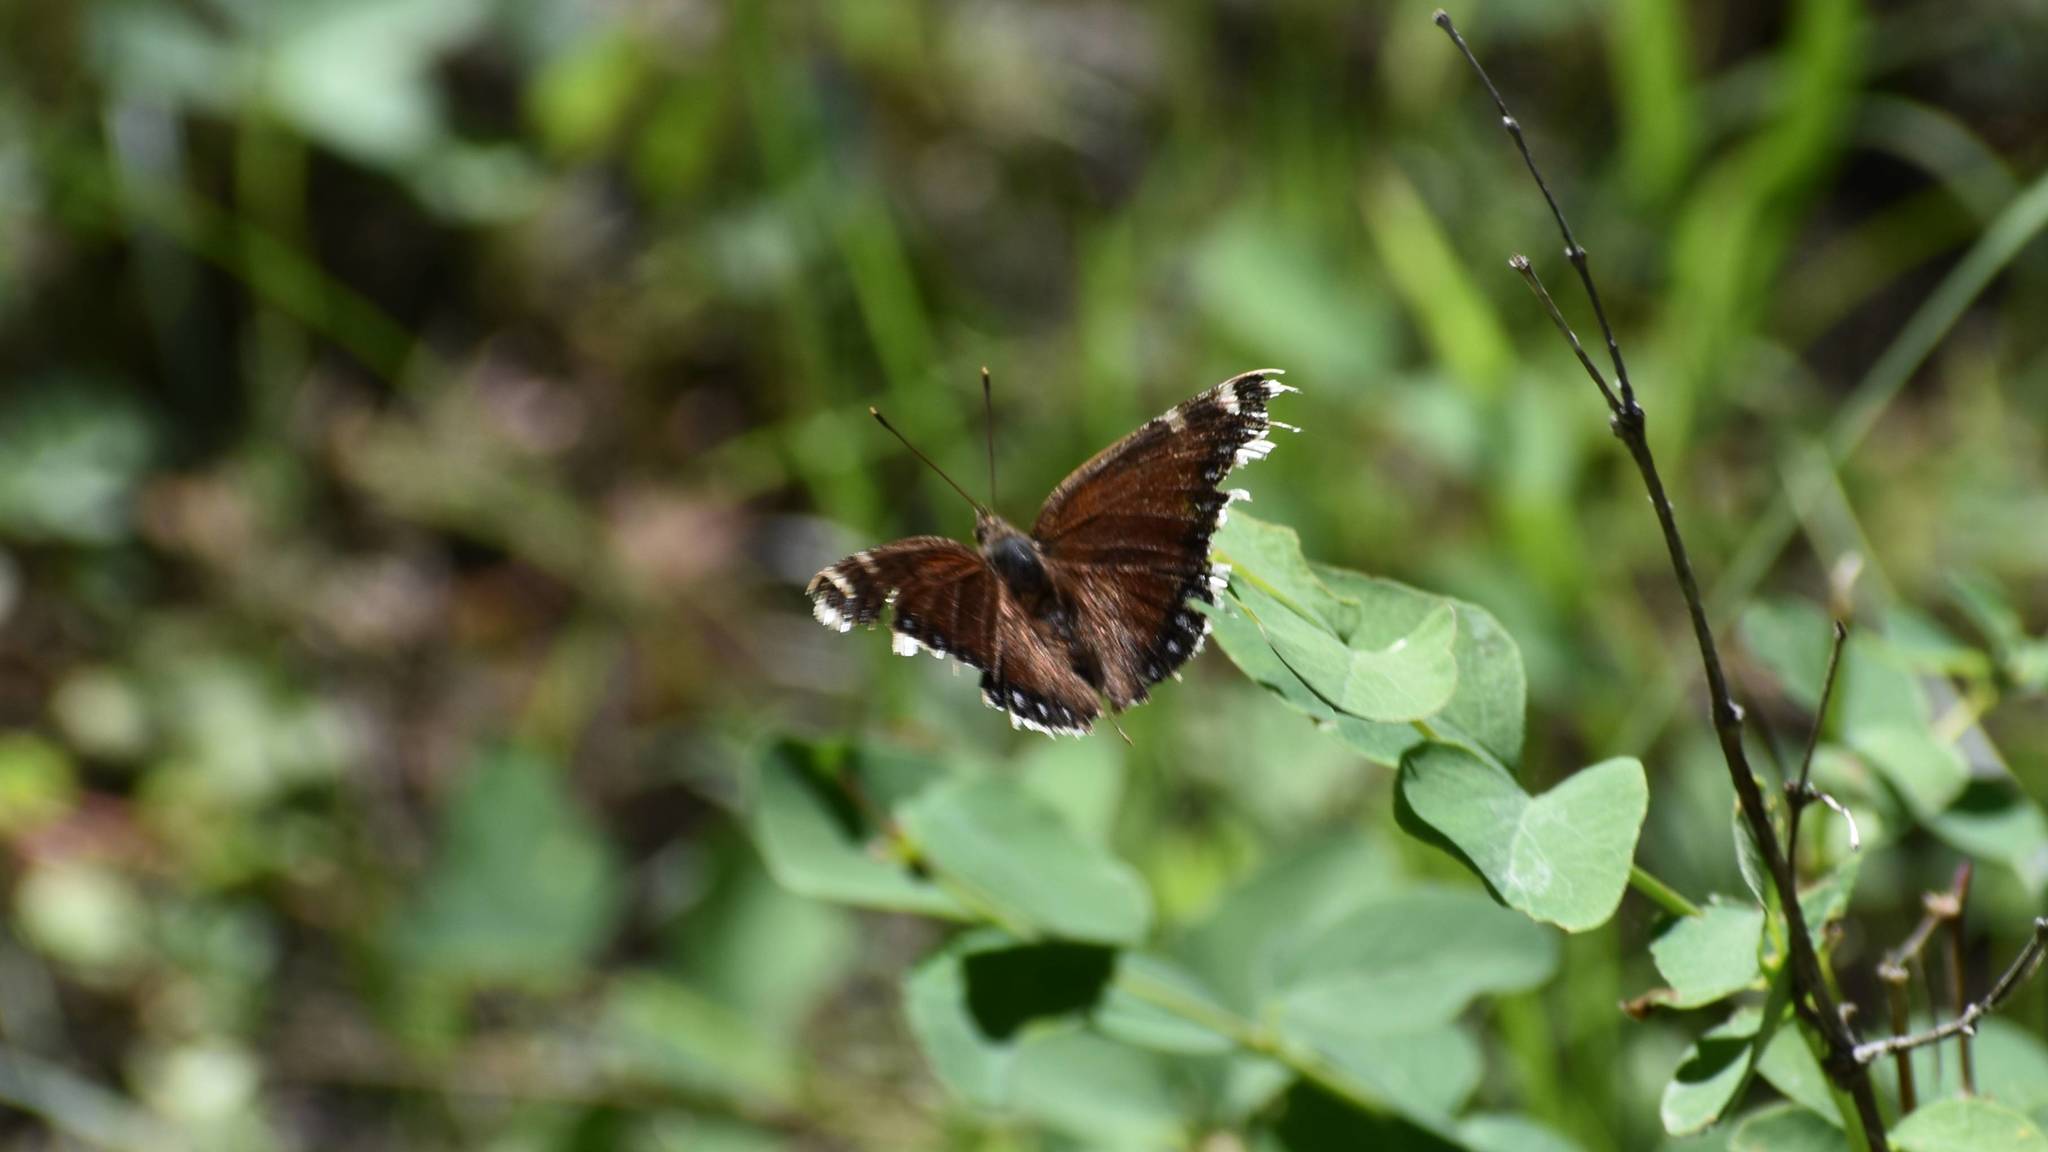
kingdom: Animalia
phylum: Arthropoda
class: Insecta
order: Lepidoptera
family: Nymphalidae
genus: Nymphalis
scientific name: Nymphalis antiopa
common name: Camberwell beauty
